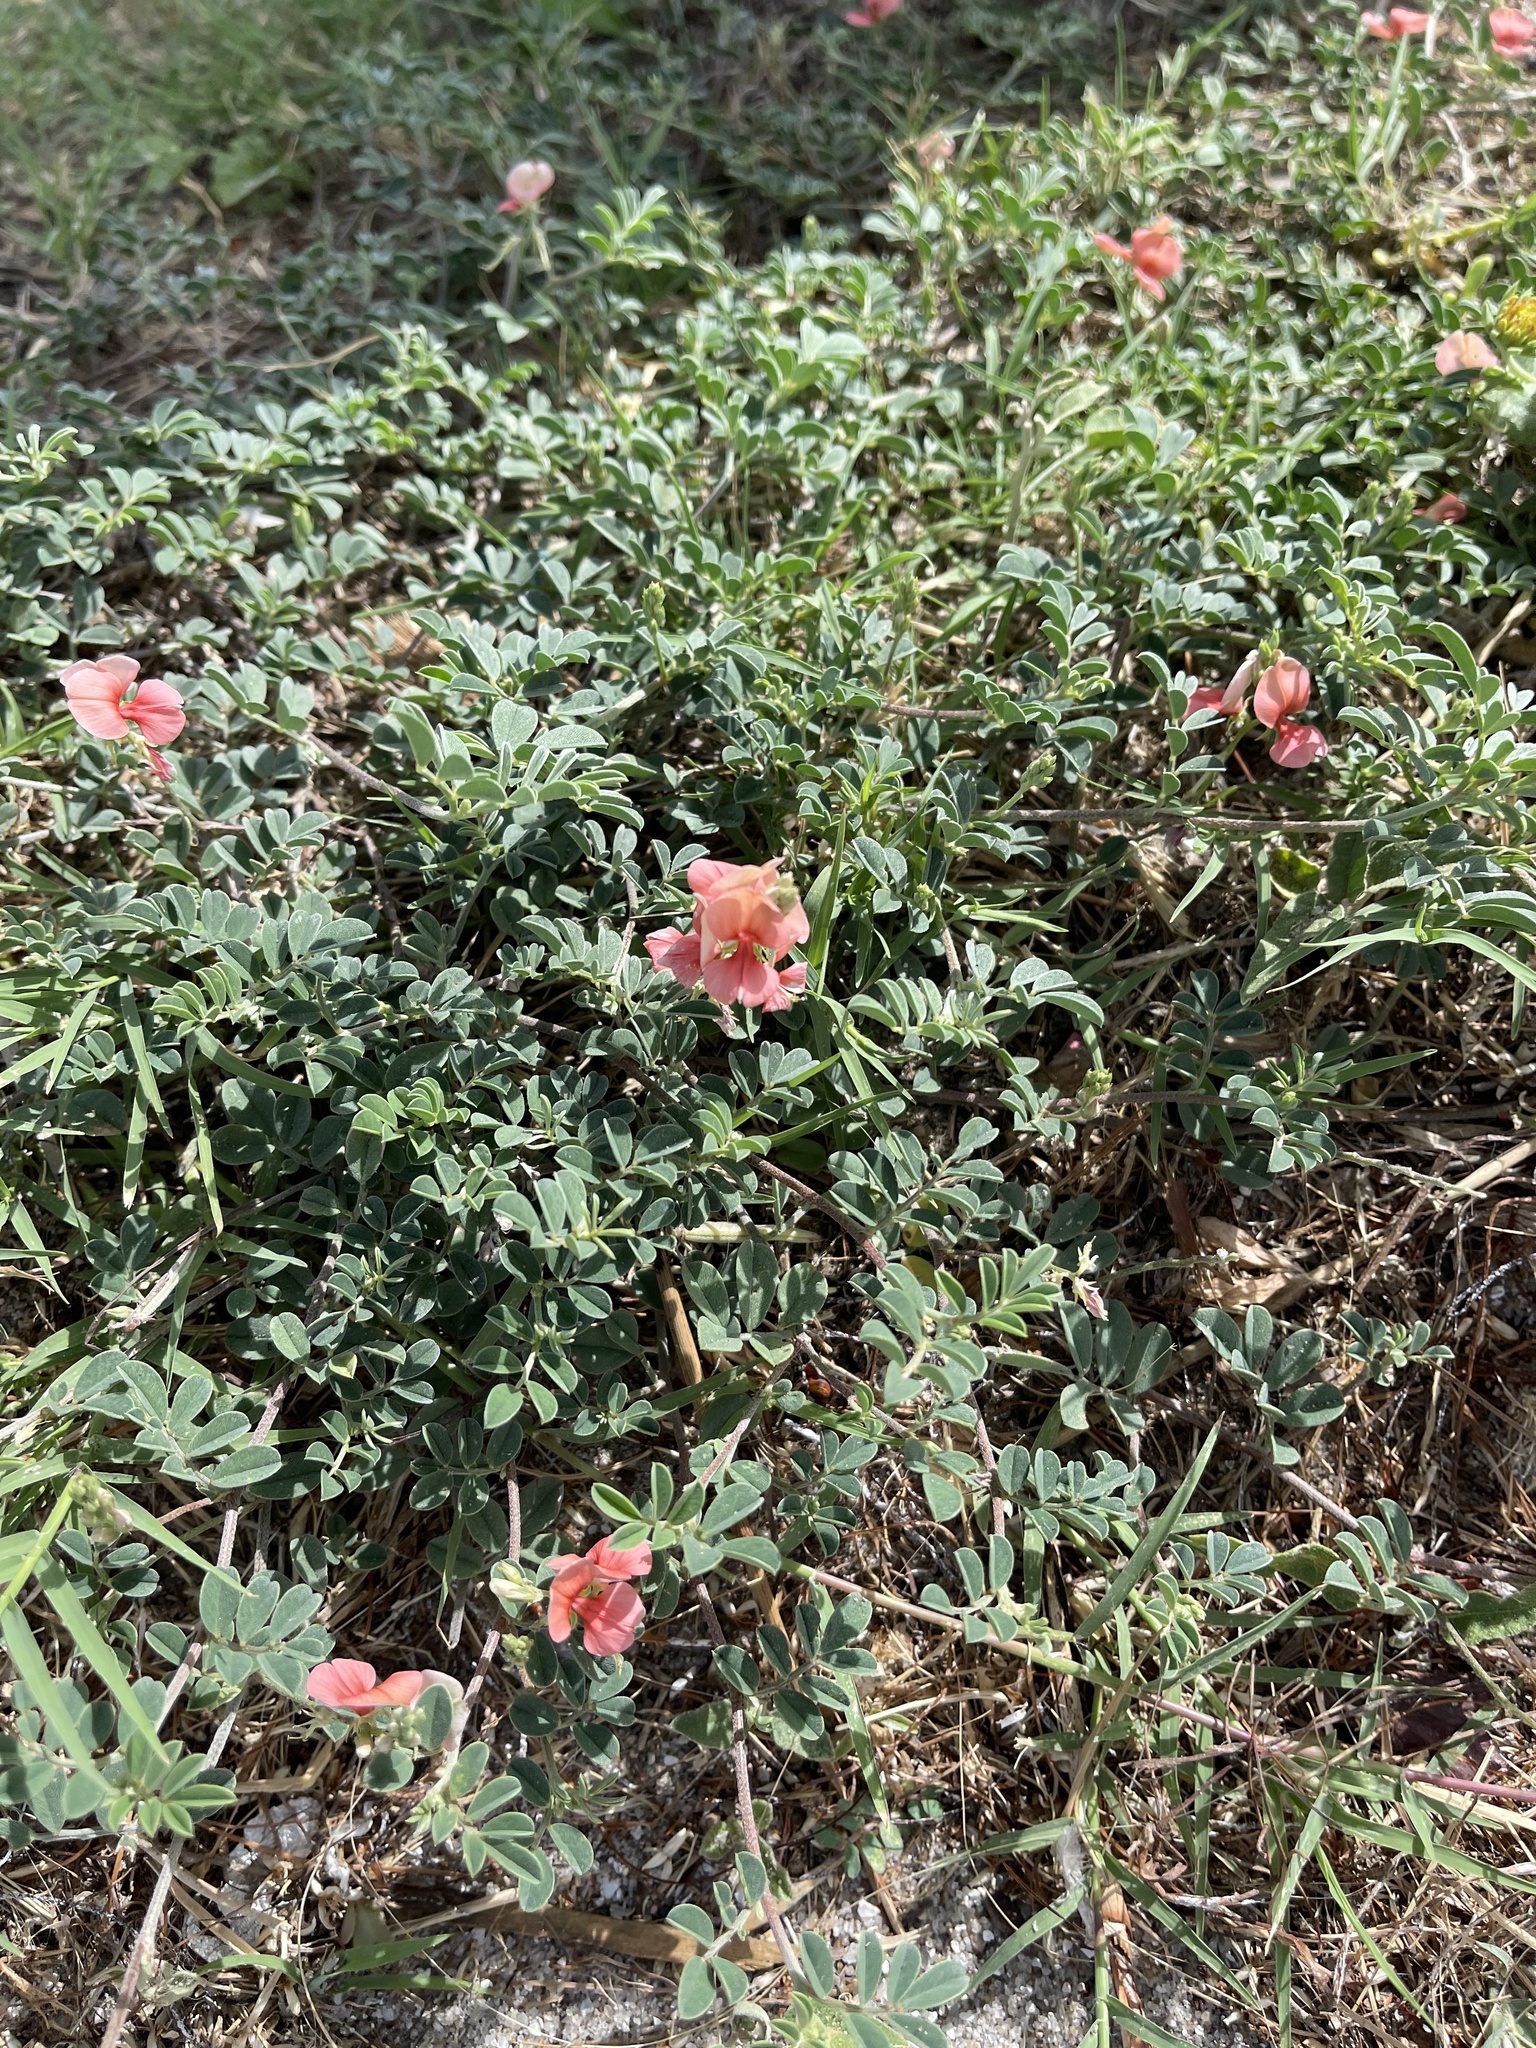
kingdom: Plantae
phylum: Tracheophyta
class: Magnoliopsida
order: Fabales
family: Fabaceae
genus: Indigofera
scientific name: Indigofera miniata
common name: Coast indigo
